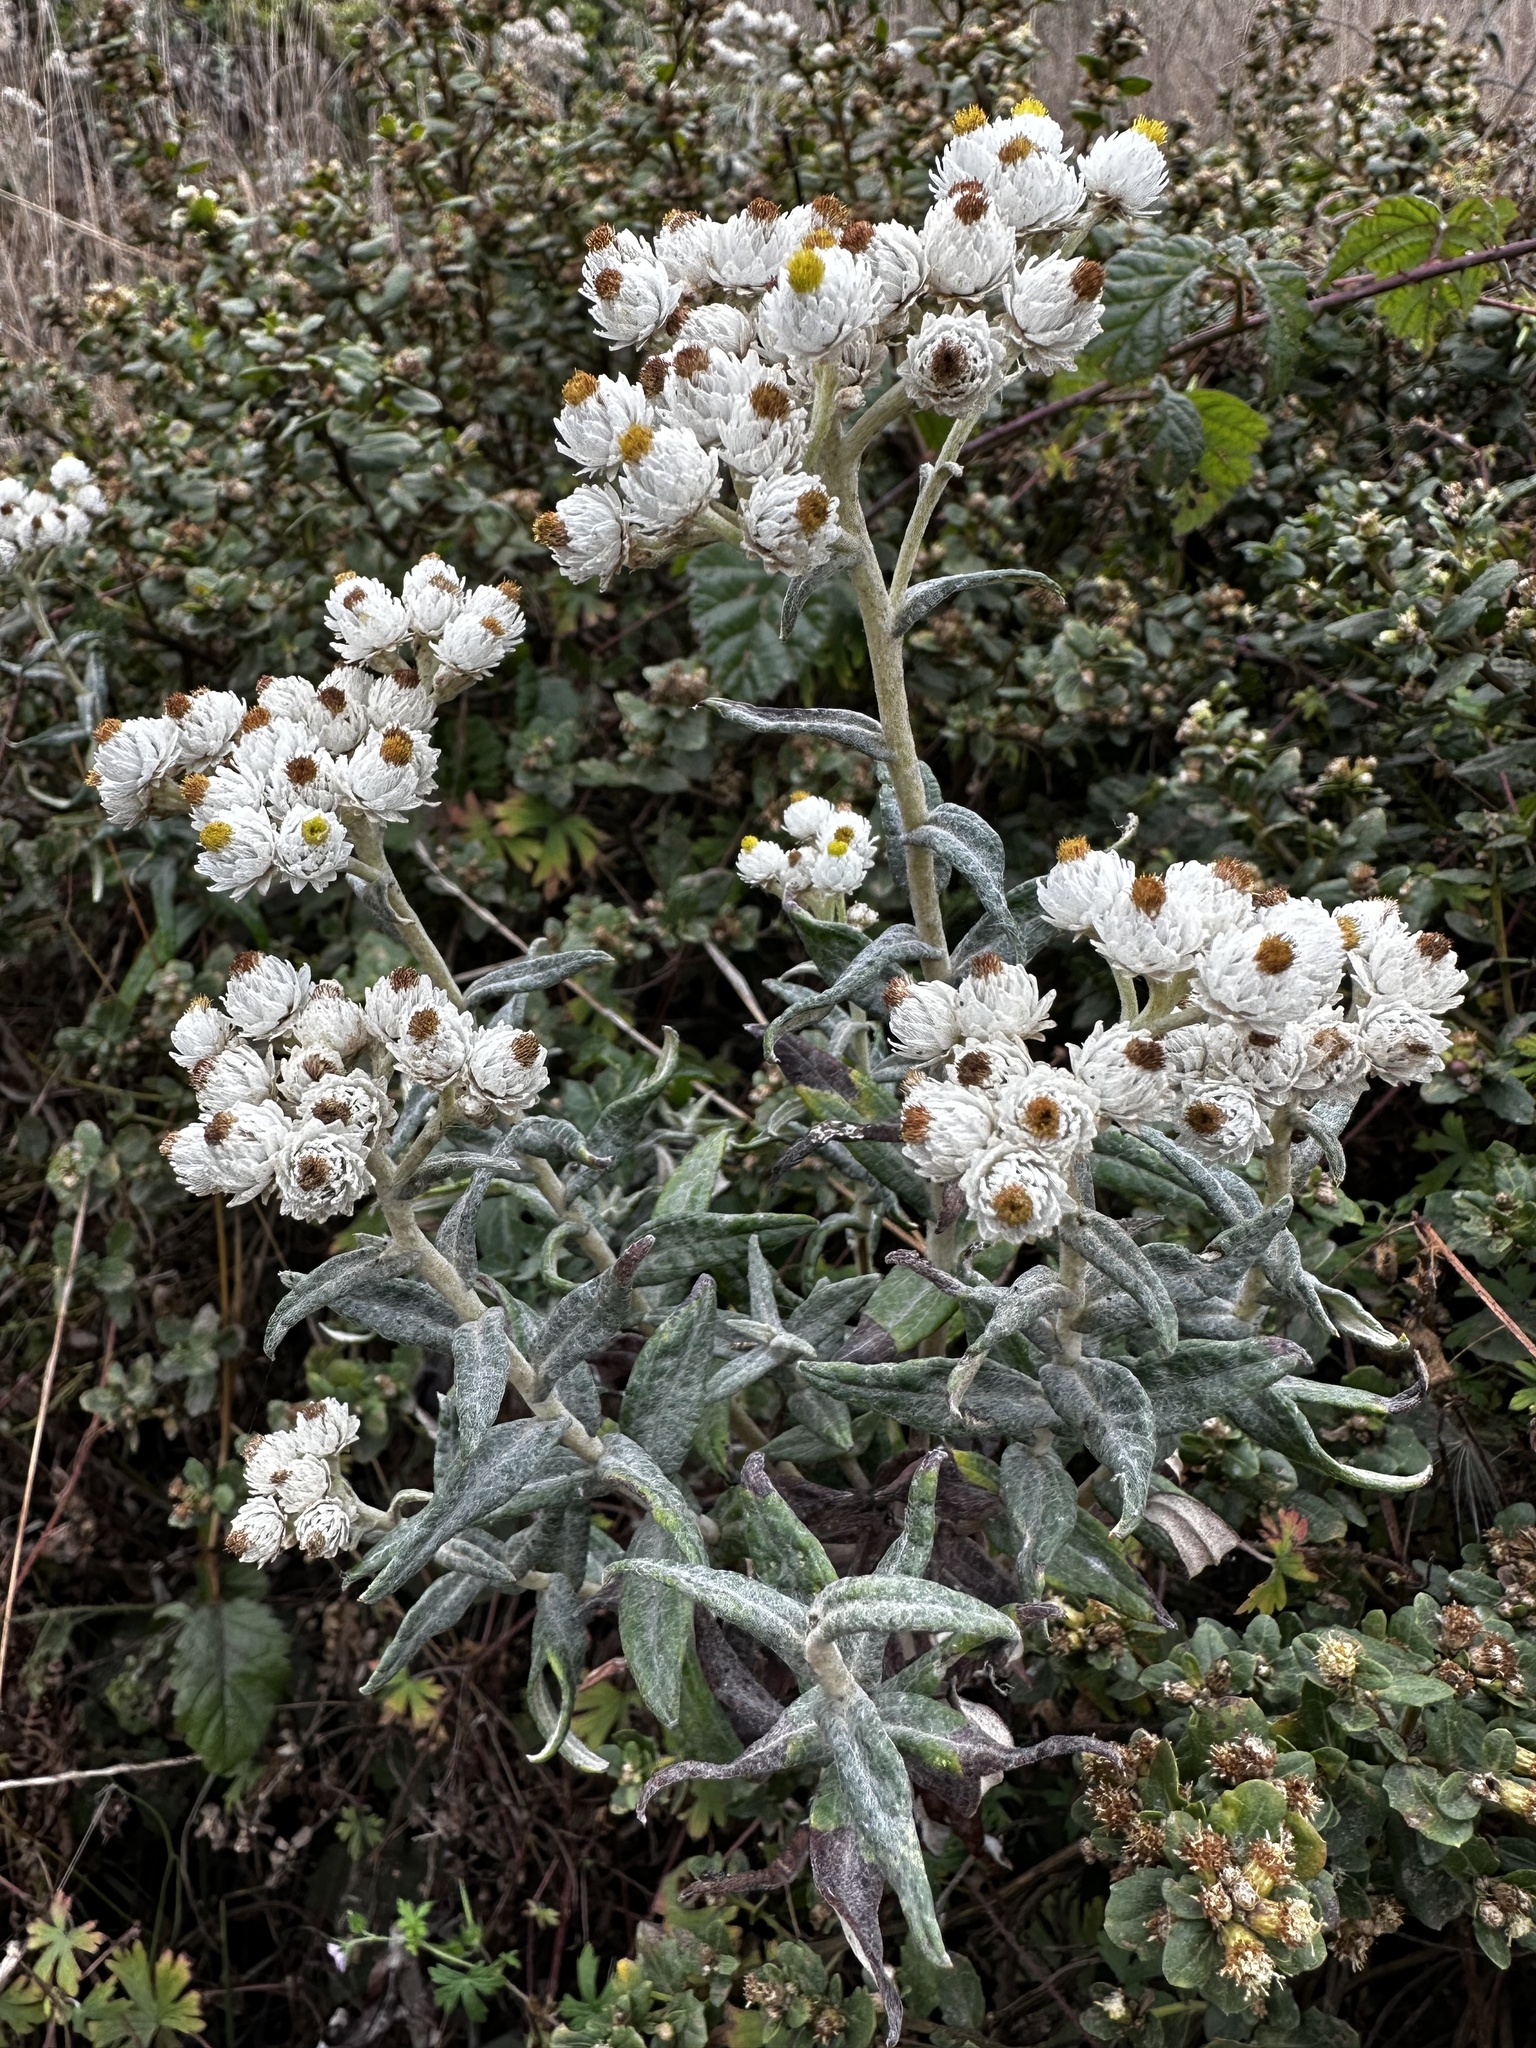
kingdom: Plantae
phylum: Tracheophyta
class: Magnoliopsida
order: Asterales
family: Asteraceae
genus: Anaphalis
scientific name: Anaphalis margaritacea
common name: Pearly everlasting
